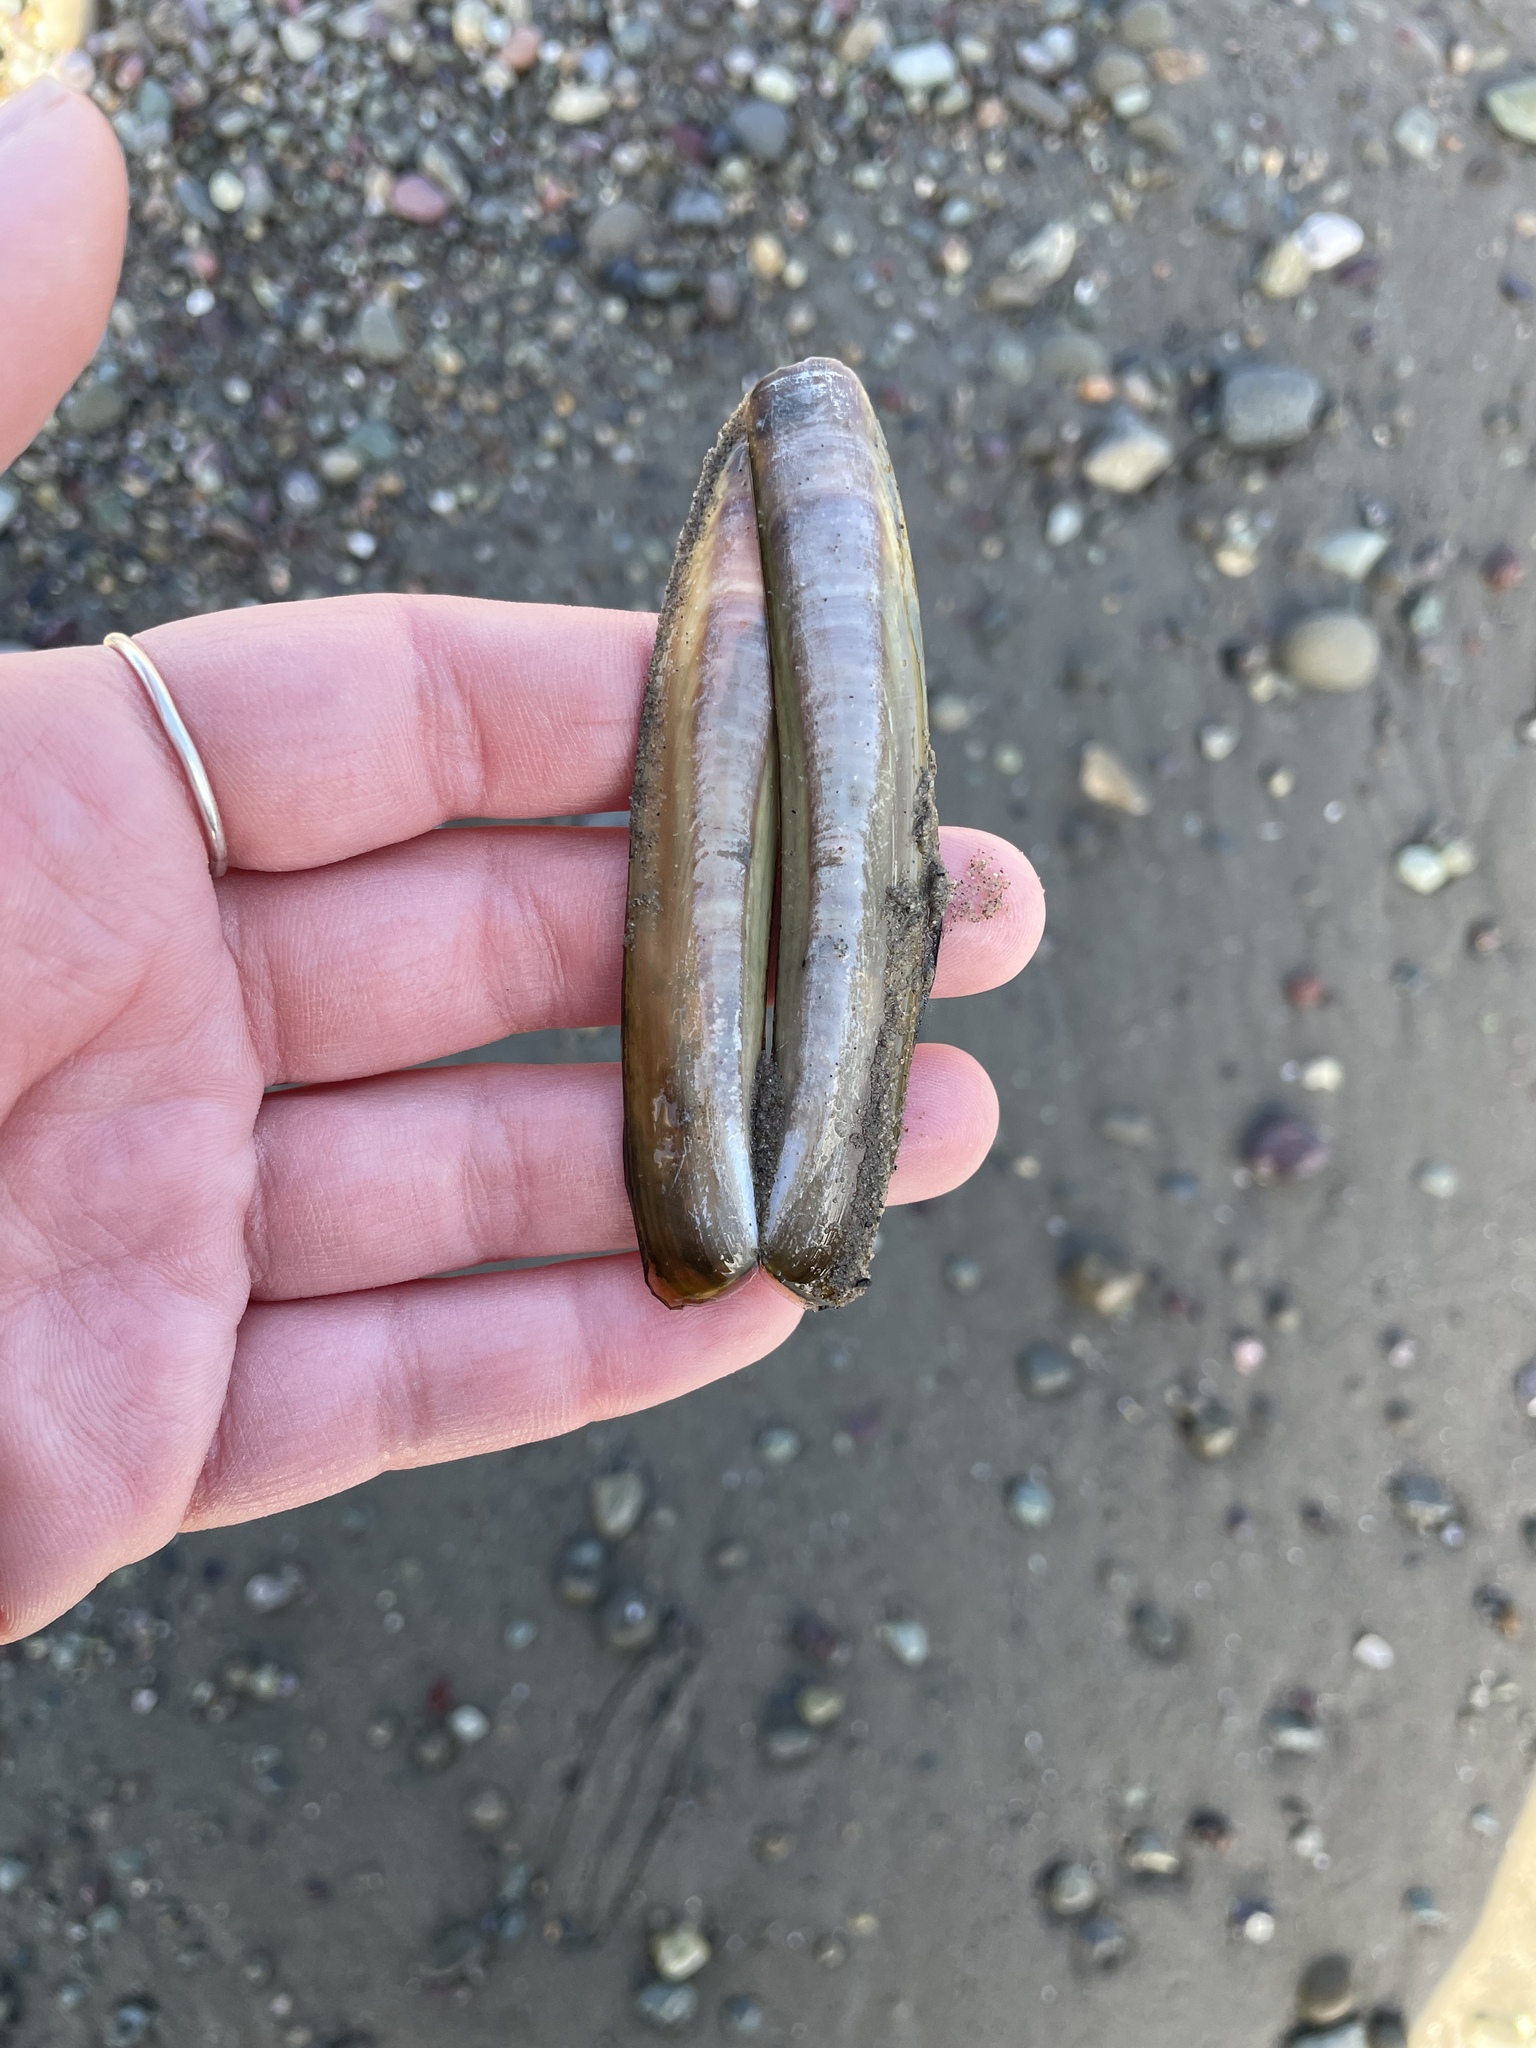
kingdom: Animalia
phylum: Mollusca
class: Bivalvia
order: Adapedonta
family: Pharidae
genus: Ensis
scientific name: Ensis leei
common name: American jack knife clam
